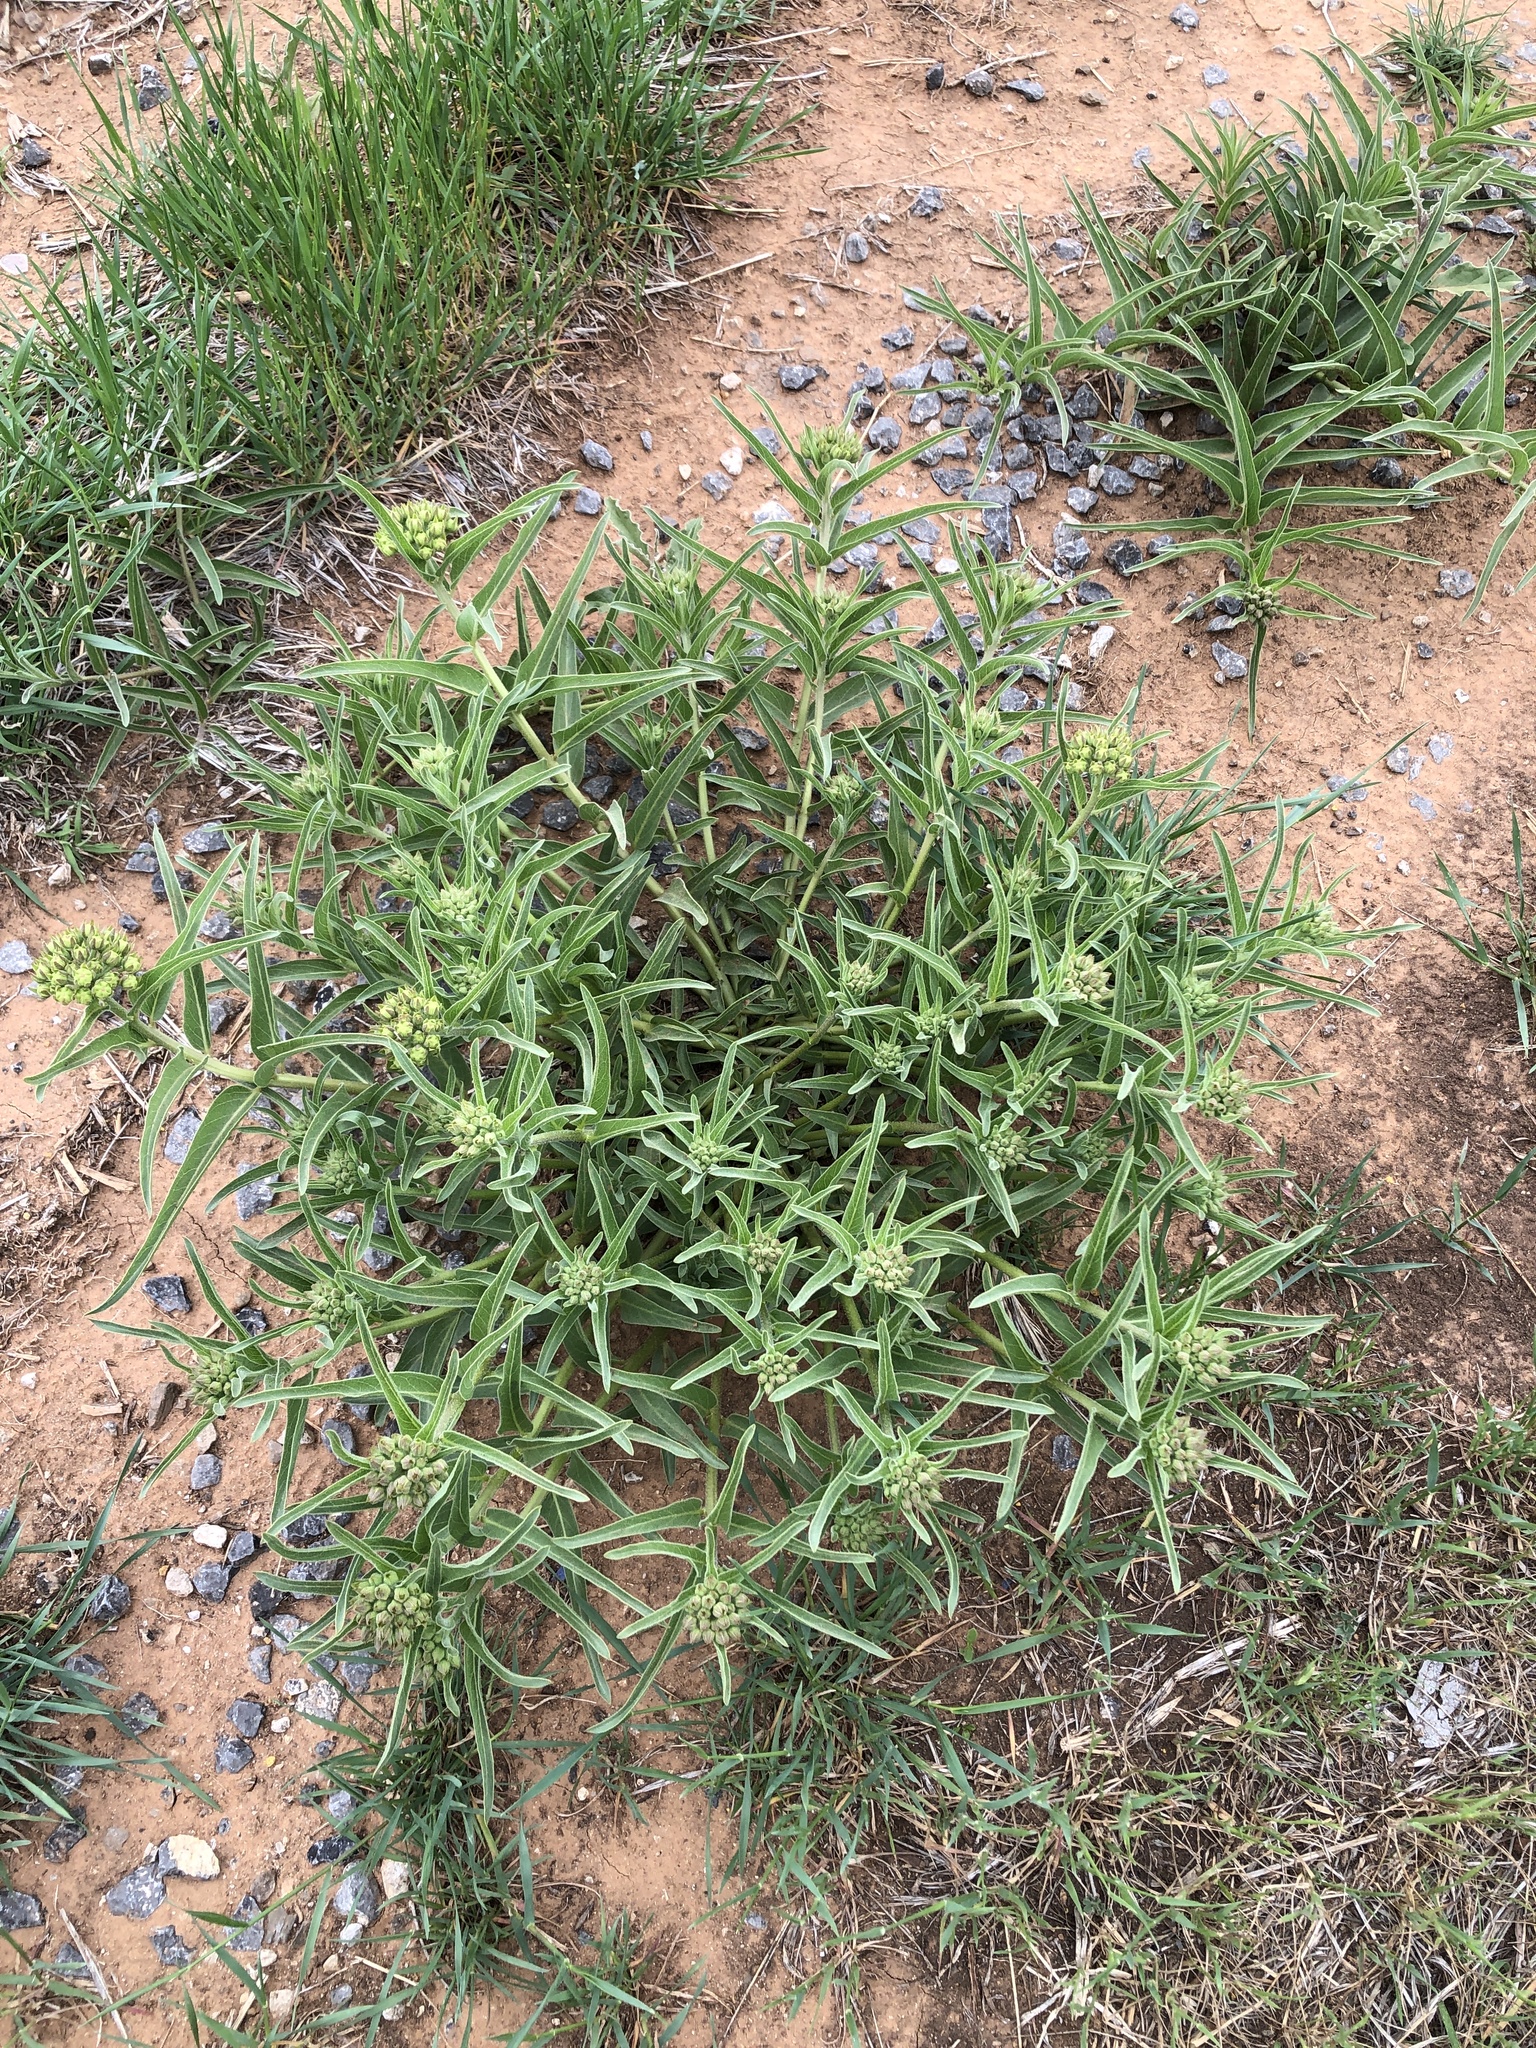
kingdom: Plantae
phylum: Tracheophyta
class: Magnoliopsida
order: Gentianales
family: Apocynaceae
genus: Asclepias
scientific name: Asclepias asperula
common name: Antelope horns
